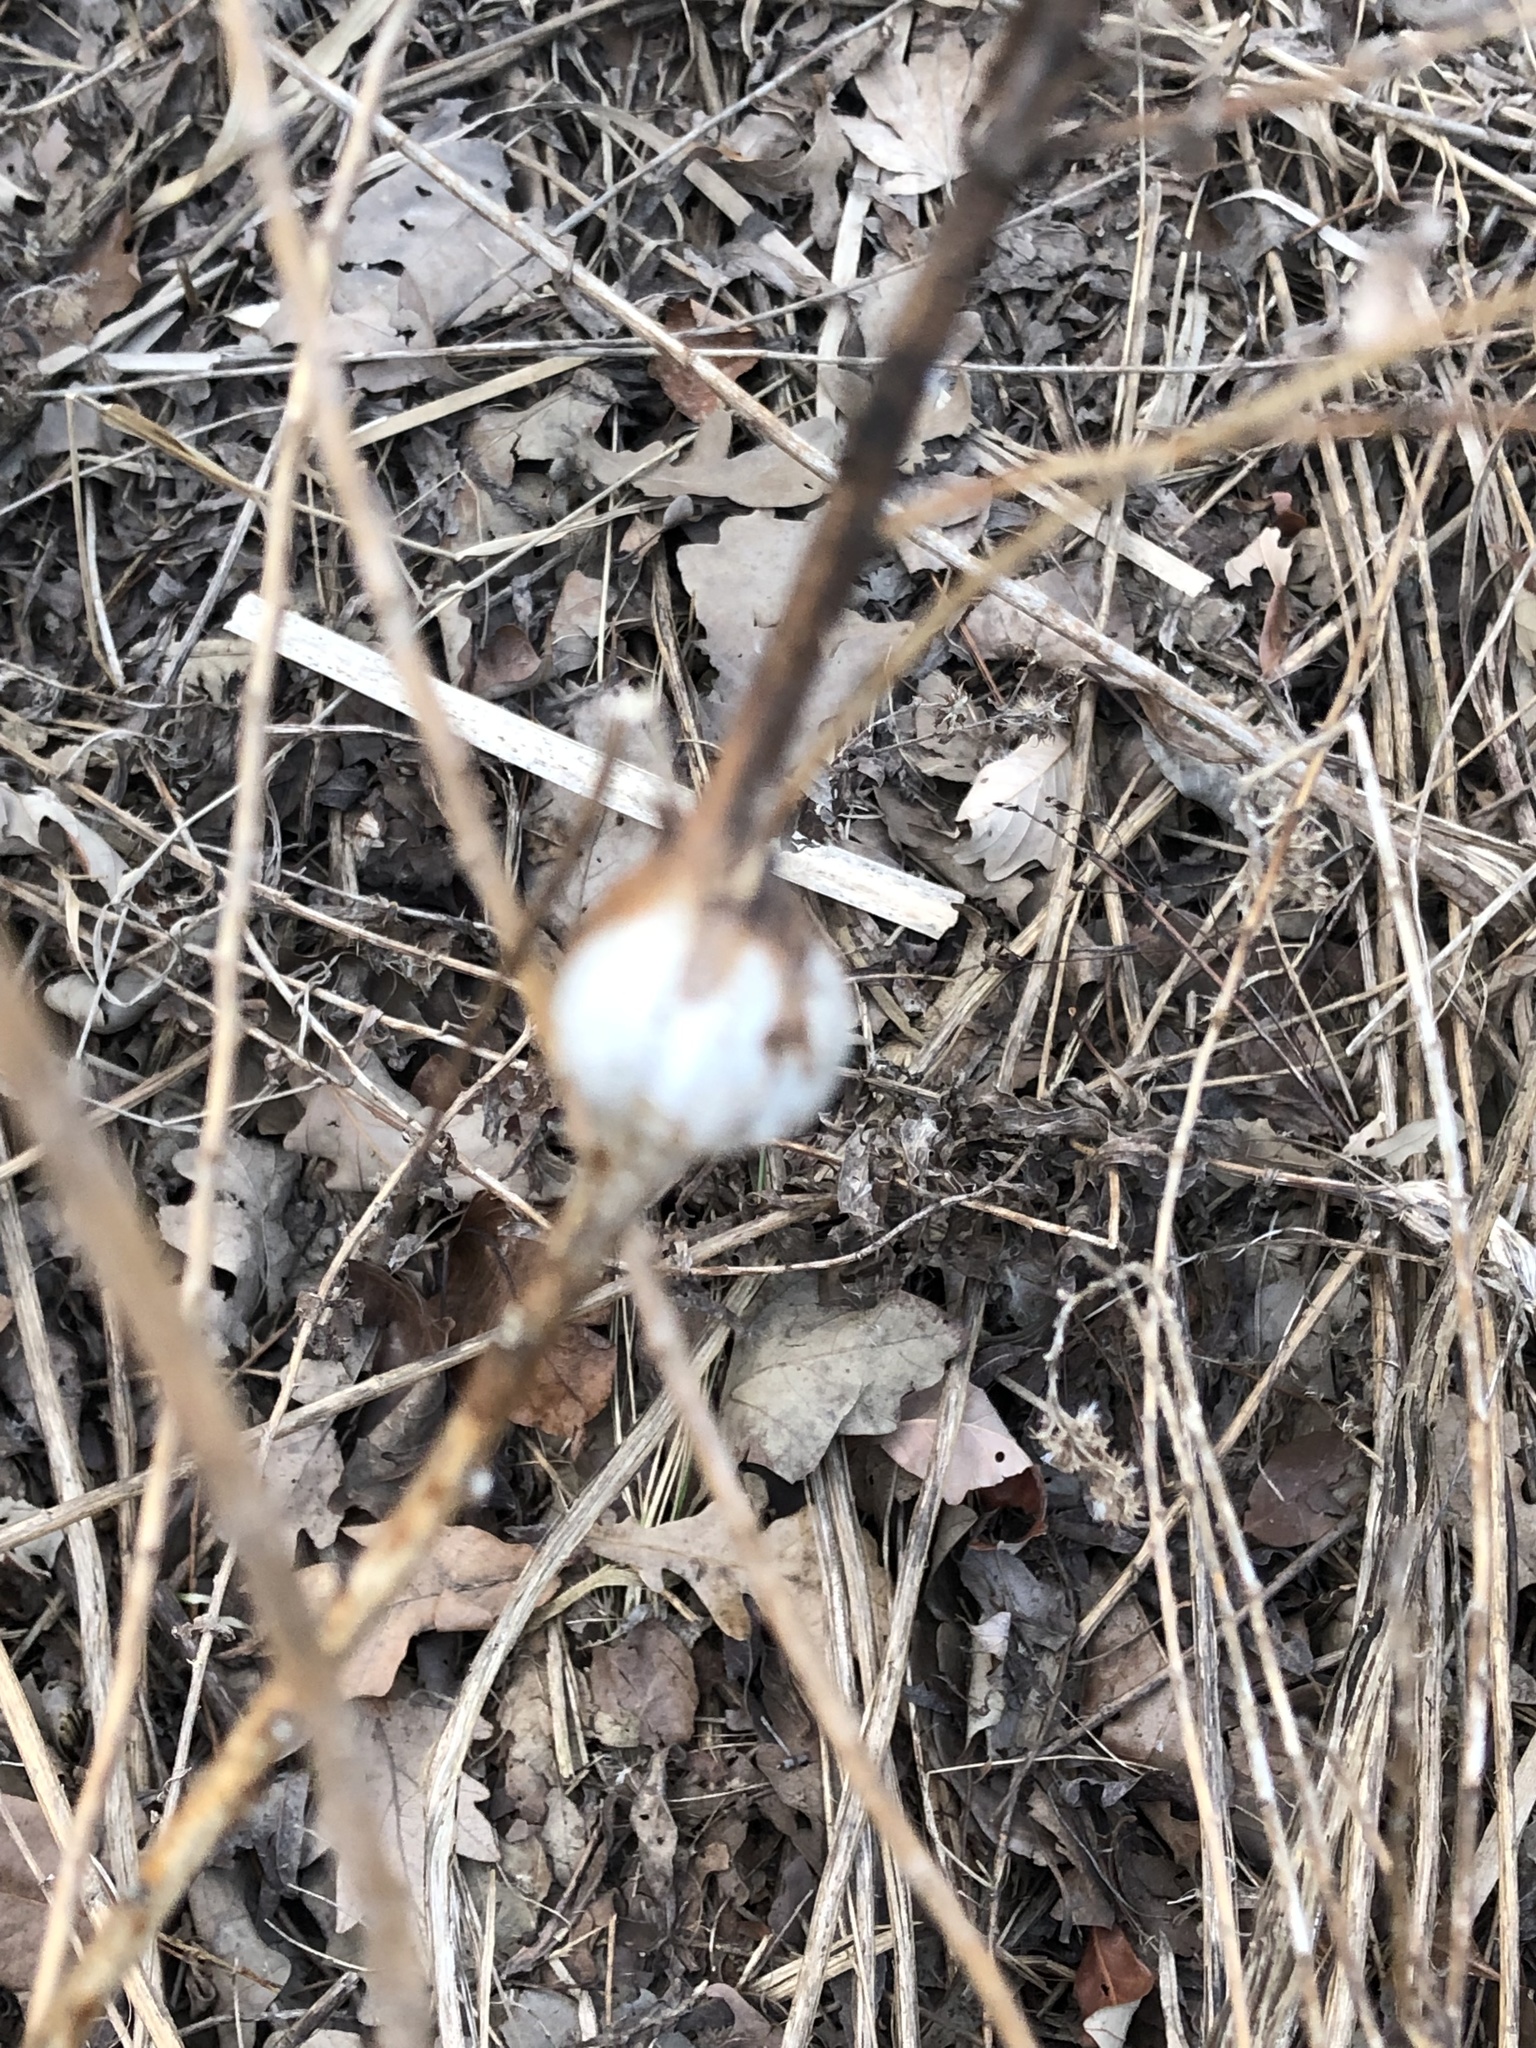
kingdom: Animalia
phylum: Arthropoda
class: Insecta
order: Diptera
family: Tephritidae
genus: Eurosta
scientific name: Eurosta solidaginis
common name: Goldenrod gall fly
